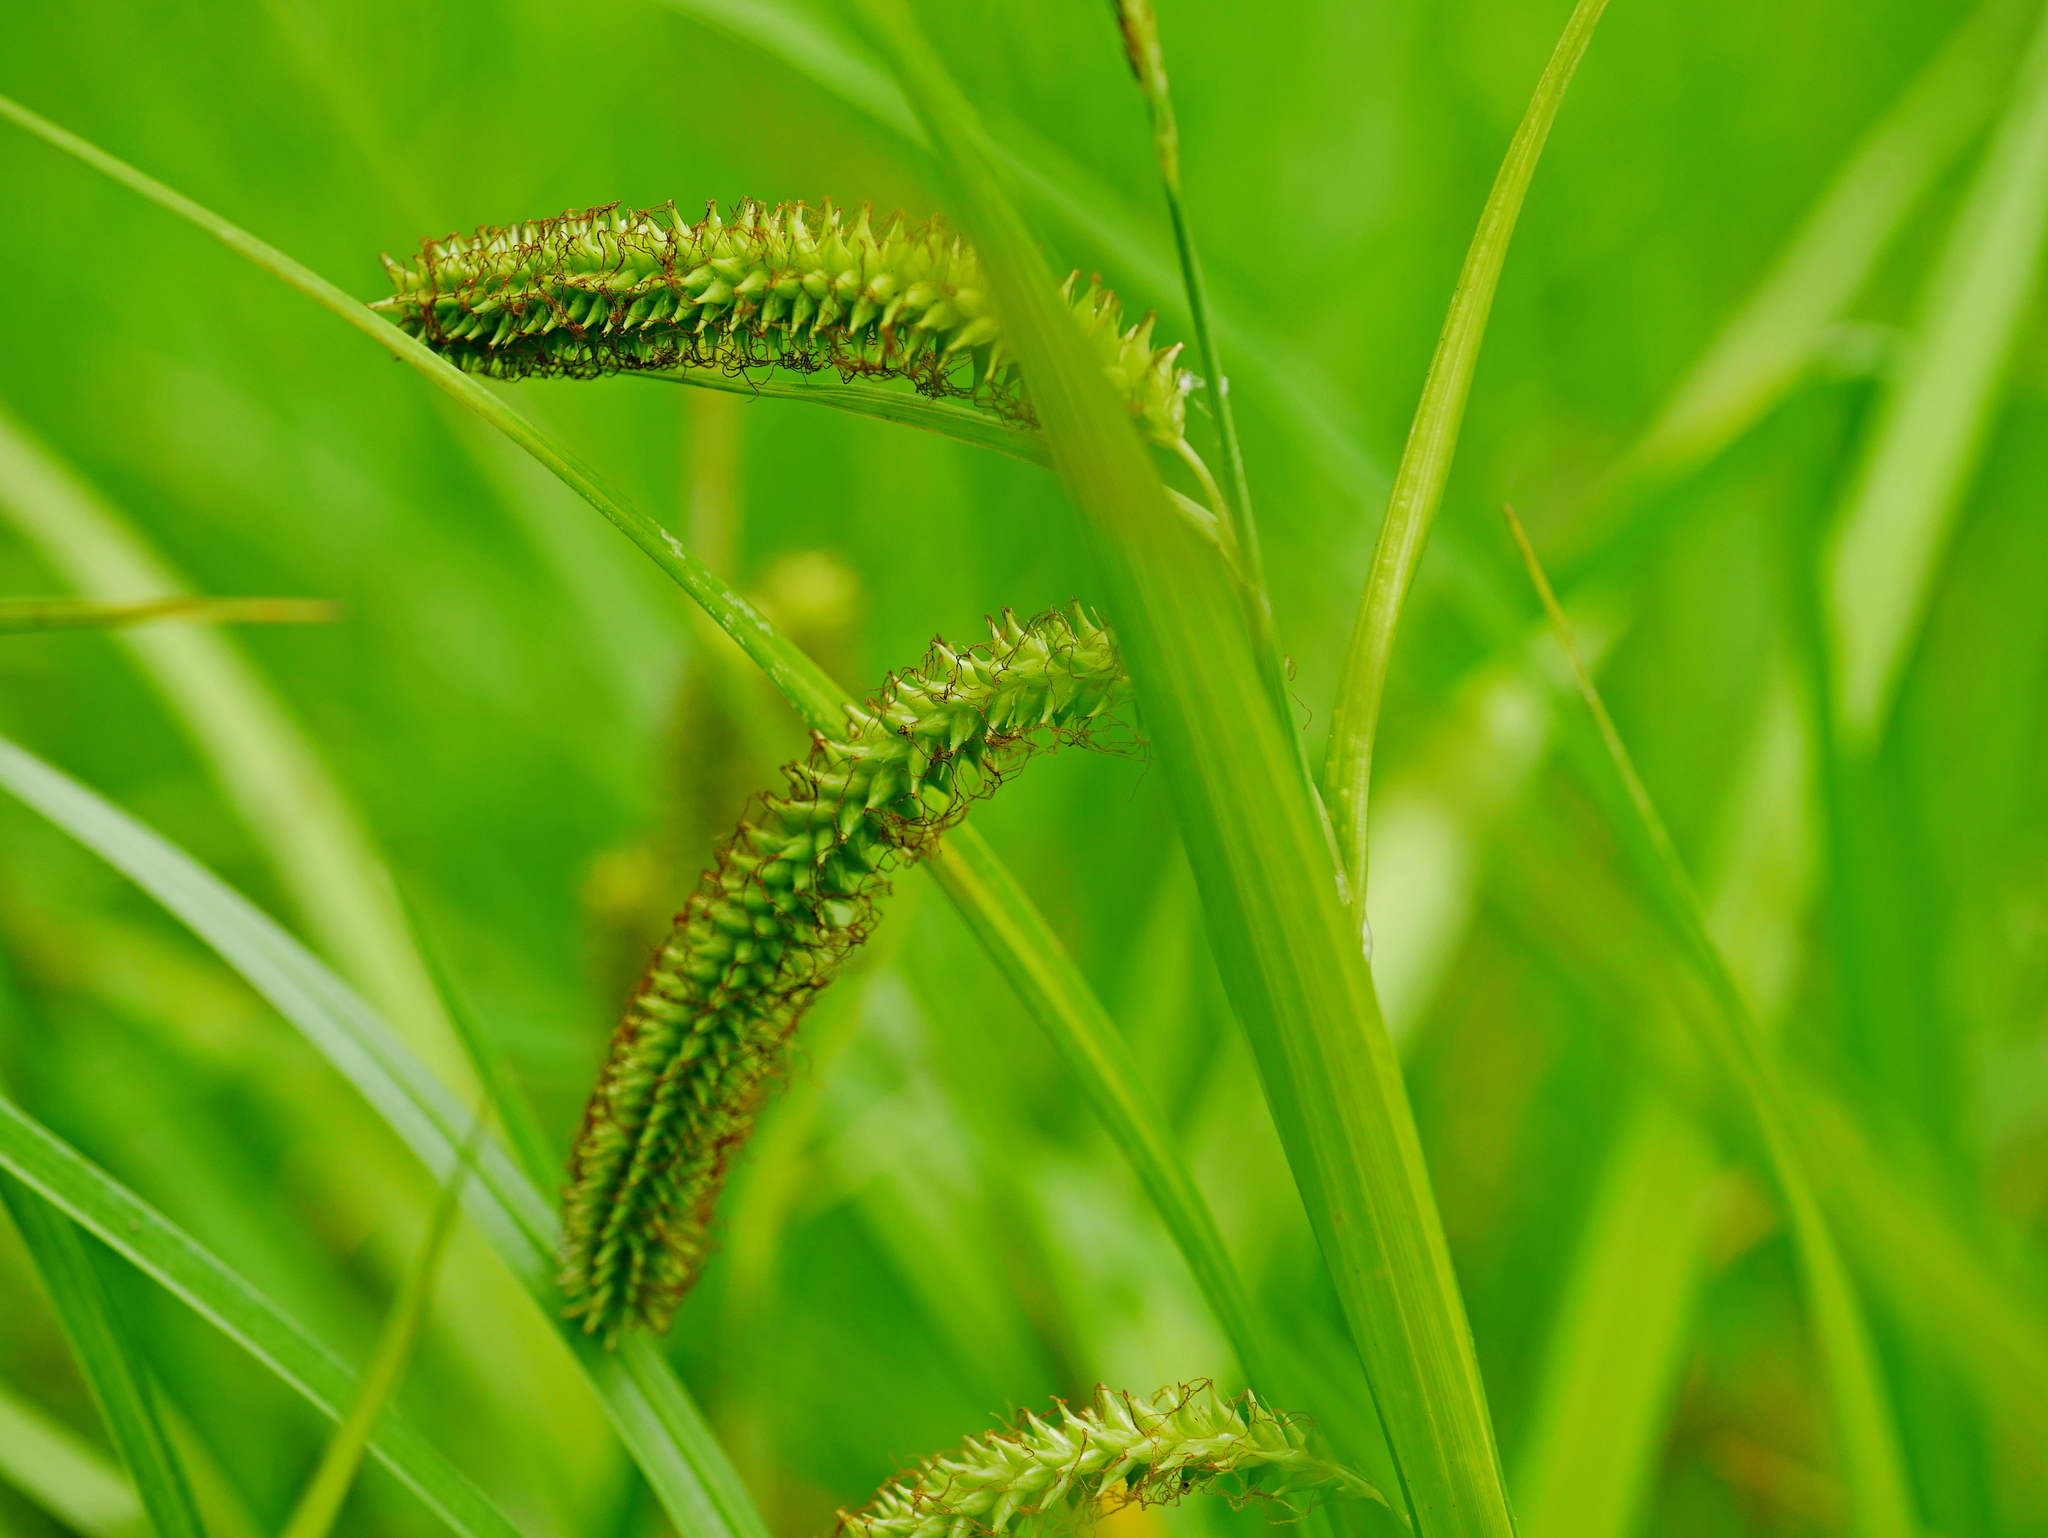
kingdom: Plantae
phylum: Tracheophyta
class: Liliopsida
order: Poales
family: Cyperaceae
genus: Carex
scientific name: Carex doniana
